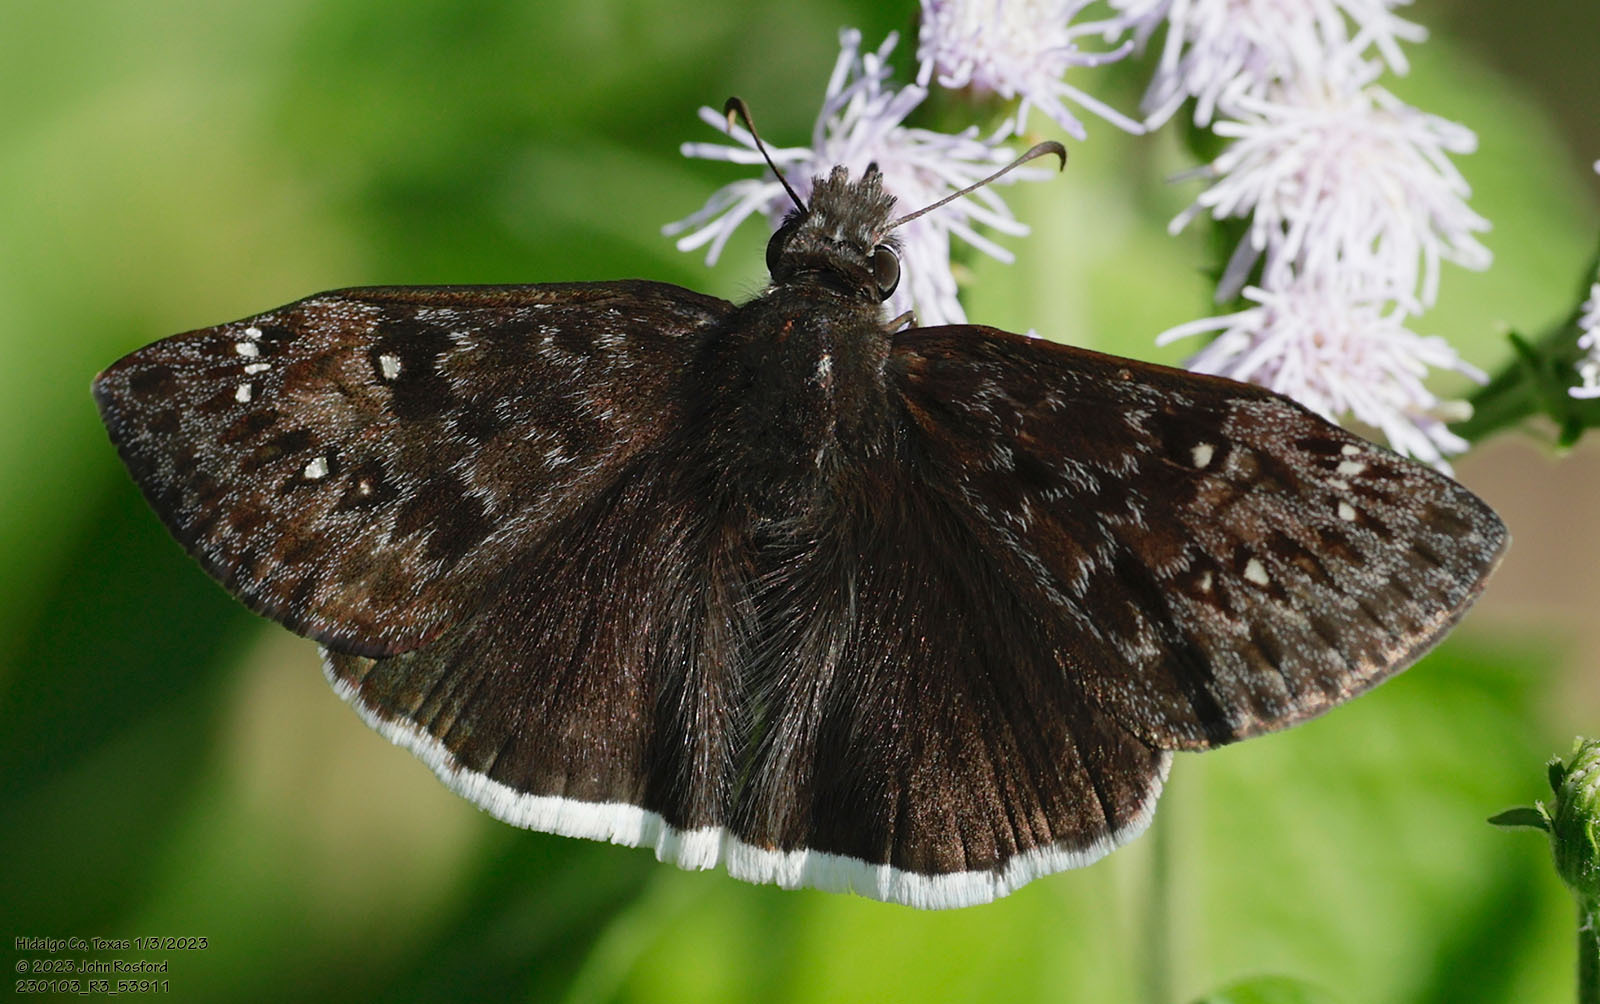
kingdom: Animalia
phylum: Arthropoda
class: Insecta
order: Lepidoptera
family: Hesperiidae
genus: Erynnis
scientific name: Erynnis tristis
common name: Mournful duskywing
